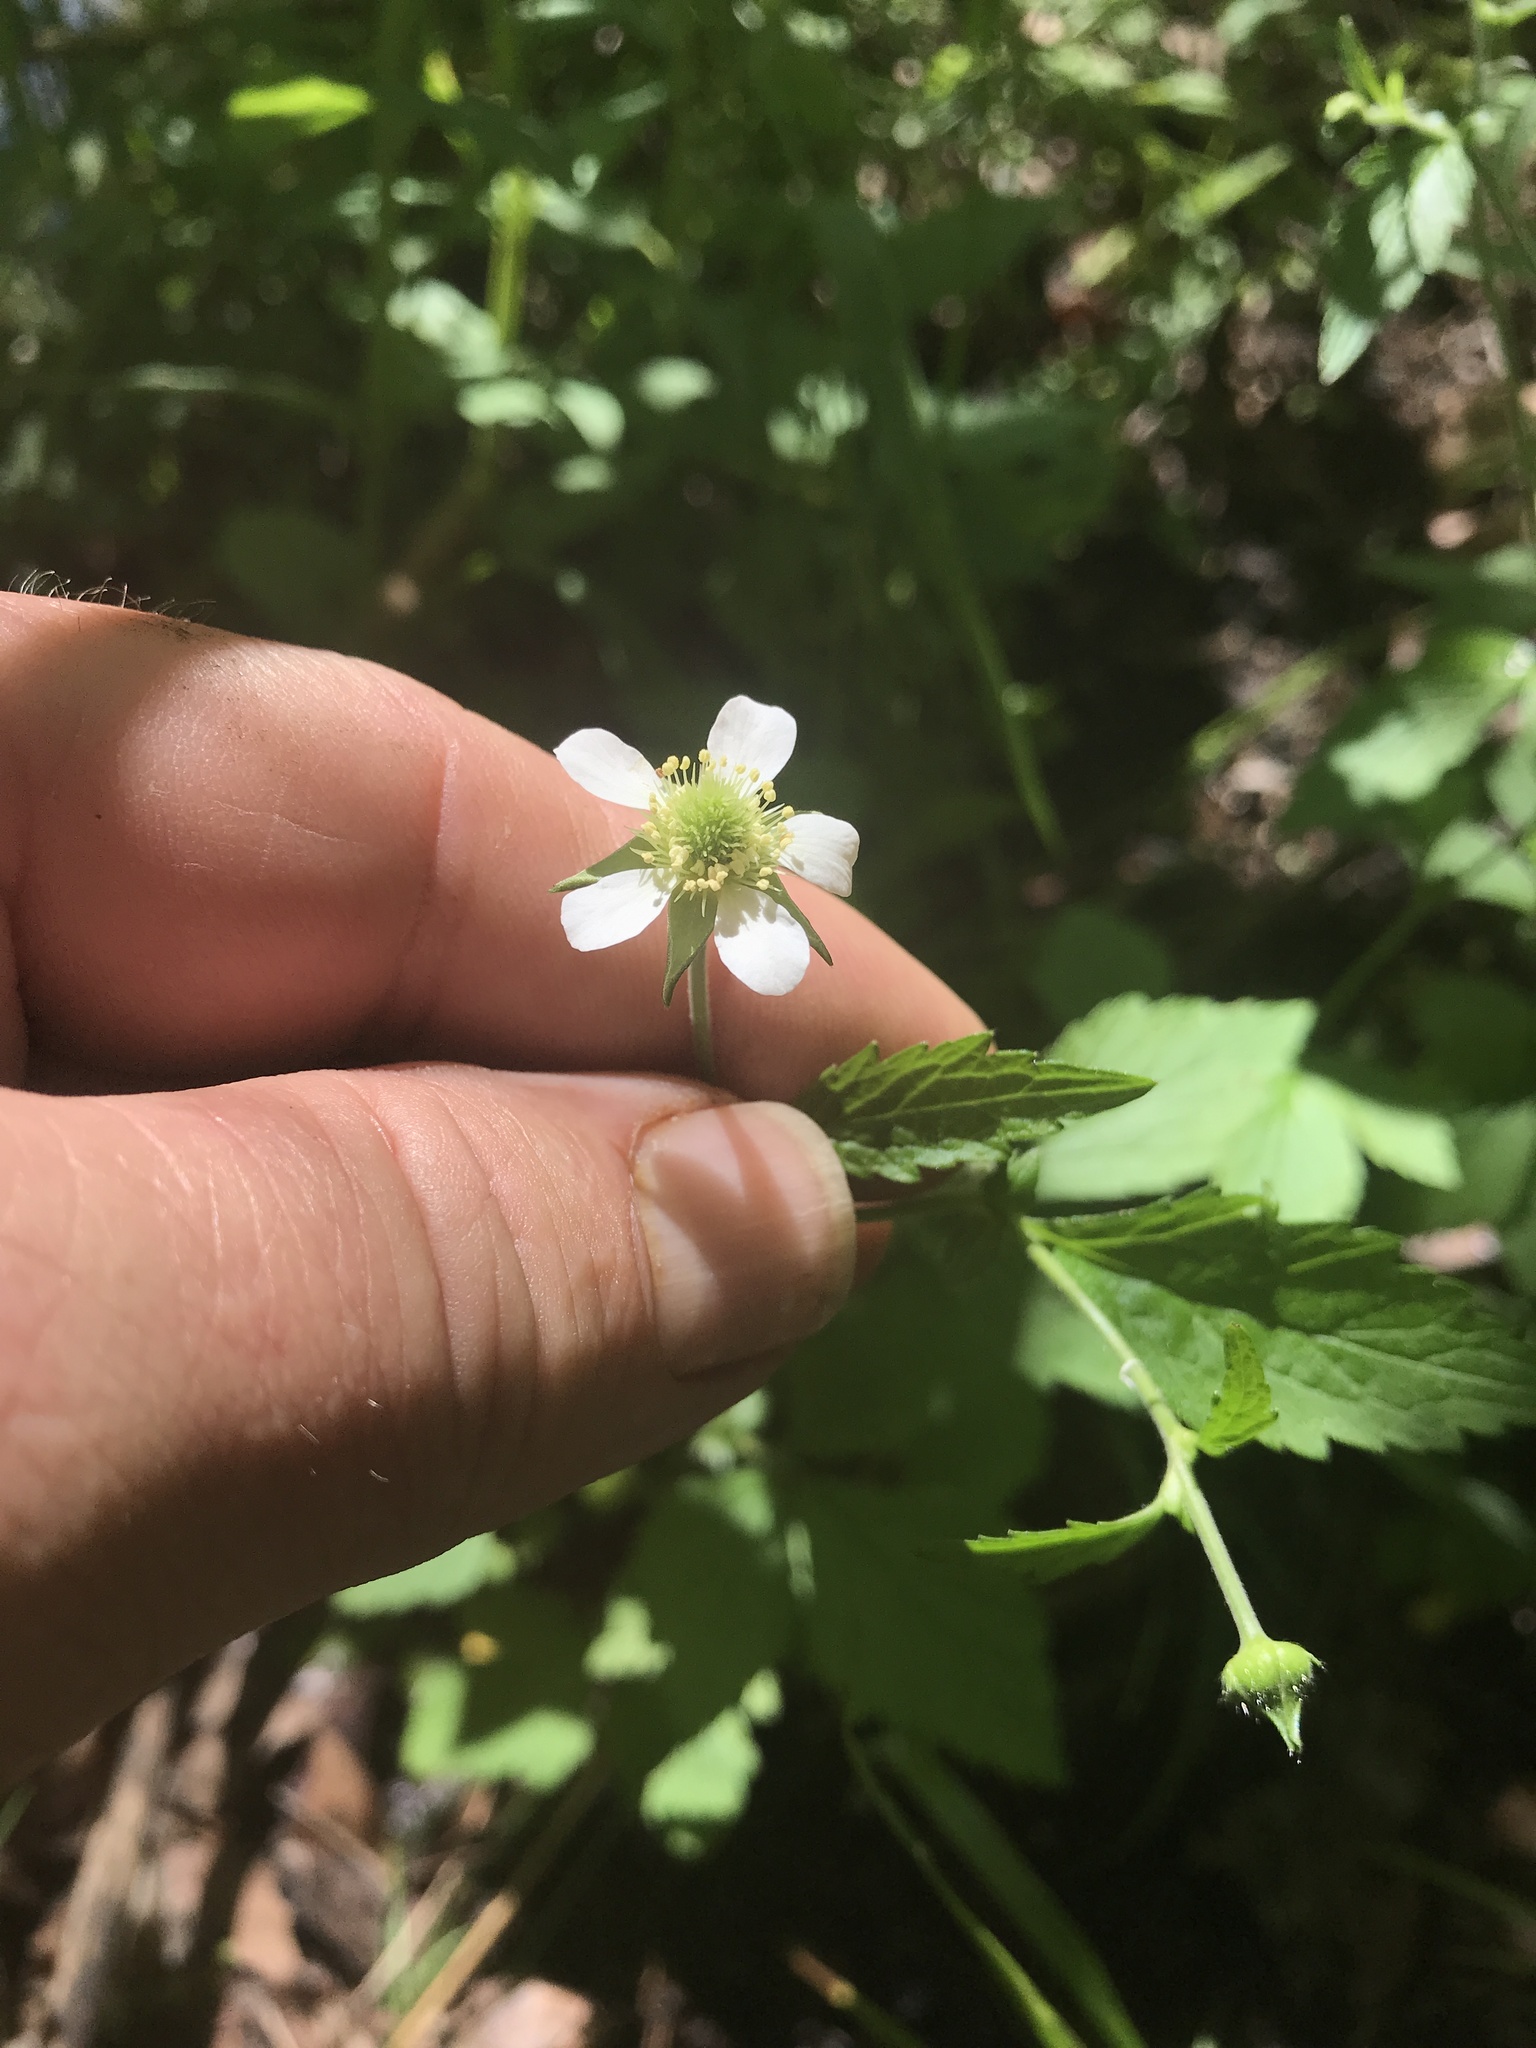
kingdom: Plantae
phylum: Tracheophyta
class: Magnoliopsida
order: Rosales
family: Rosaceae
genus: Geum
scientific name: Geum canadense
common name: White avens
